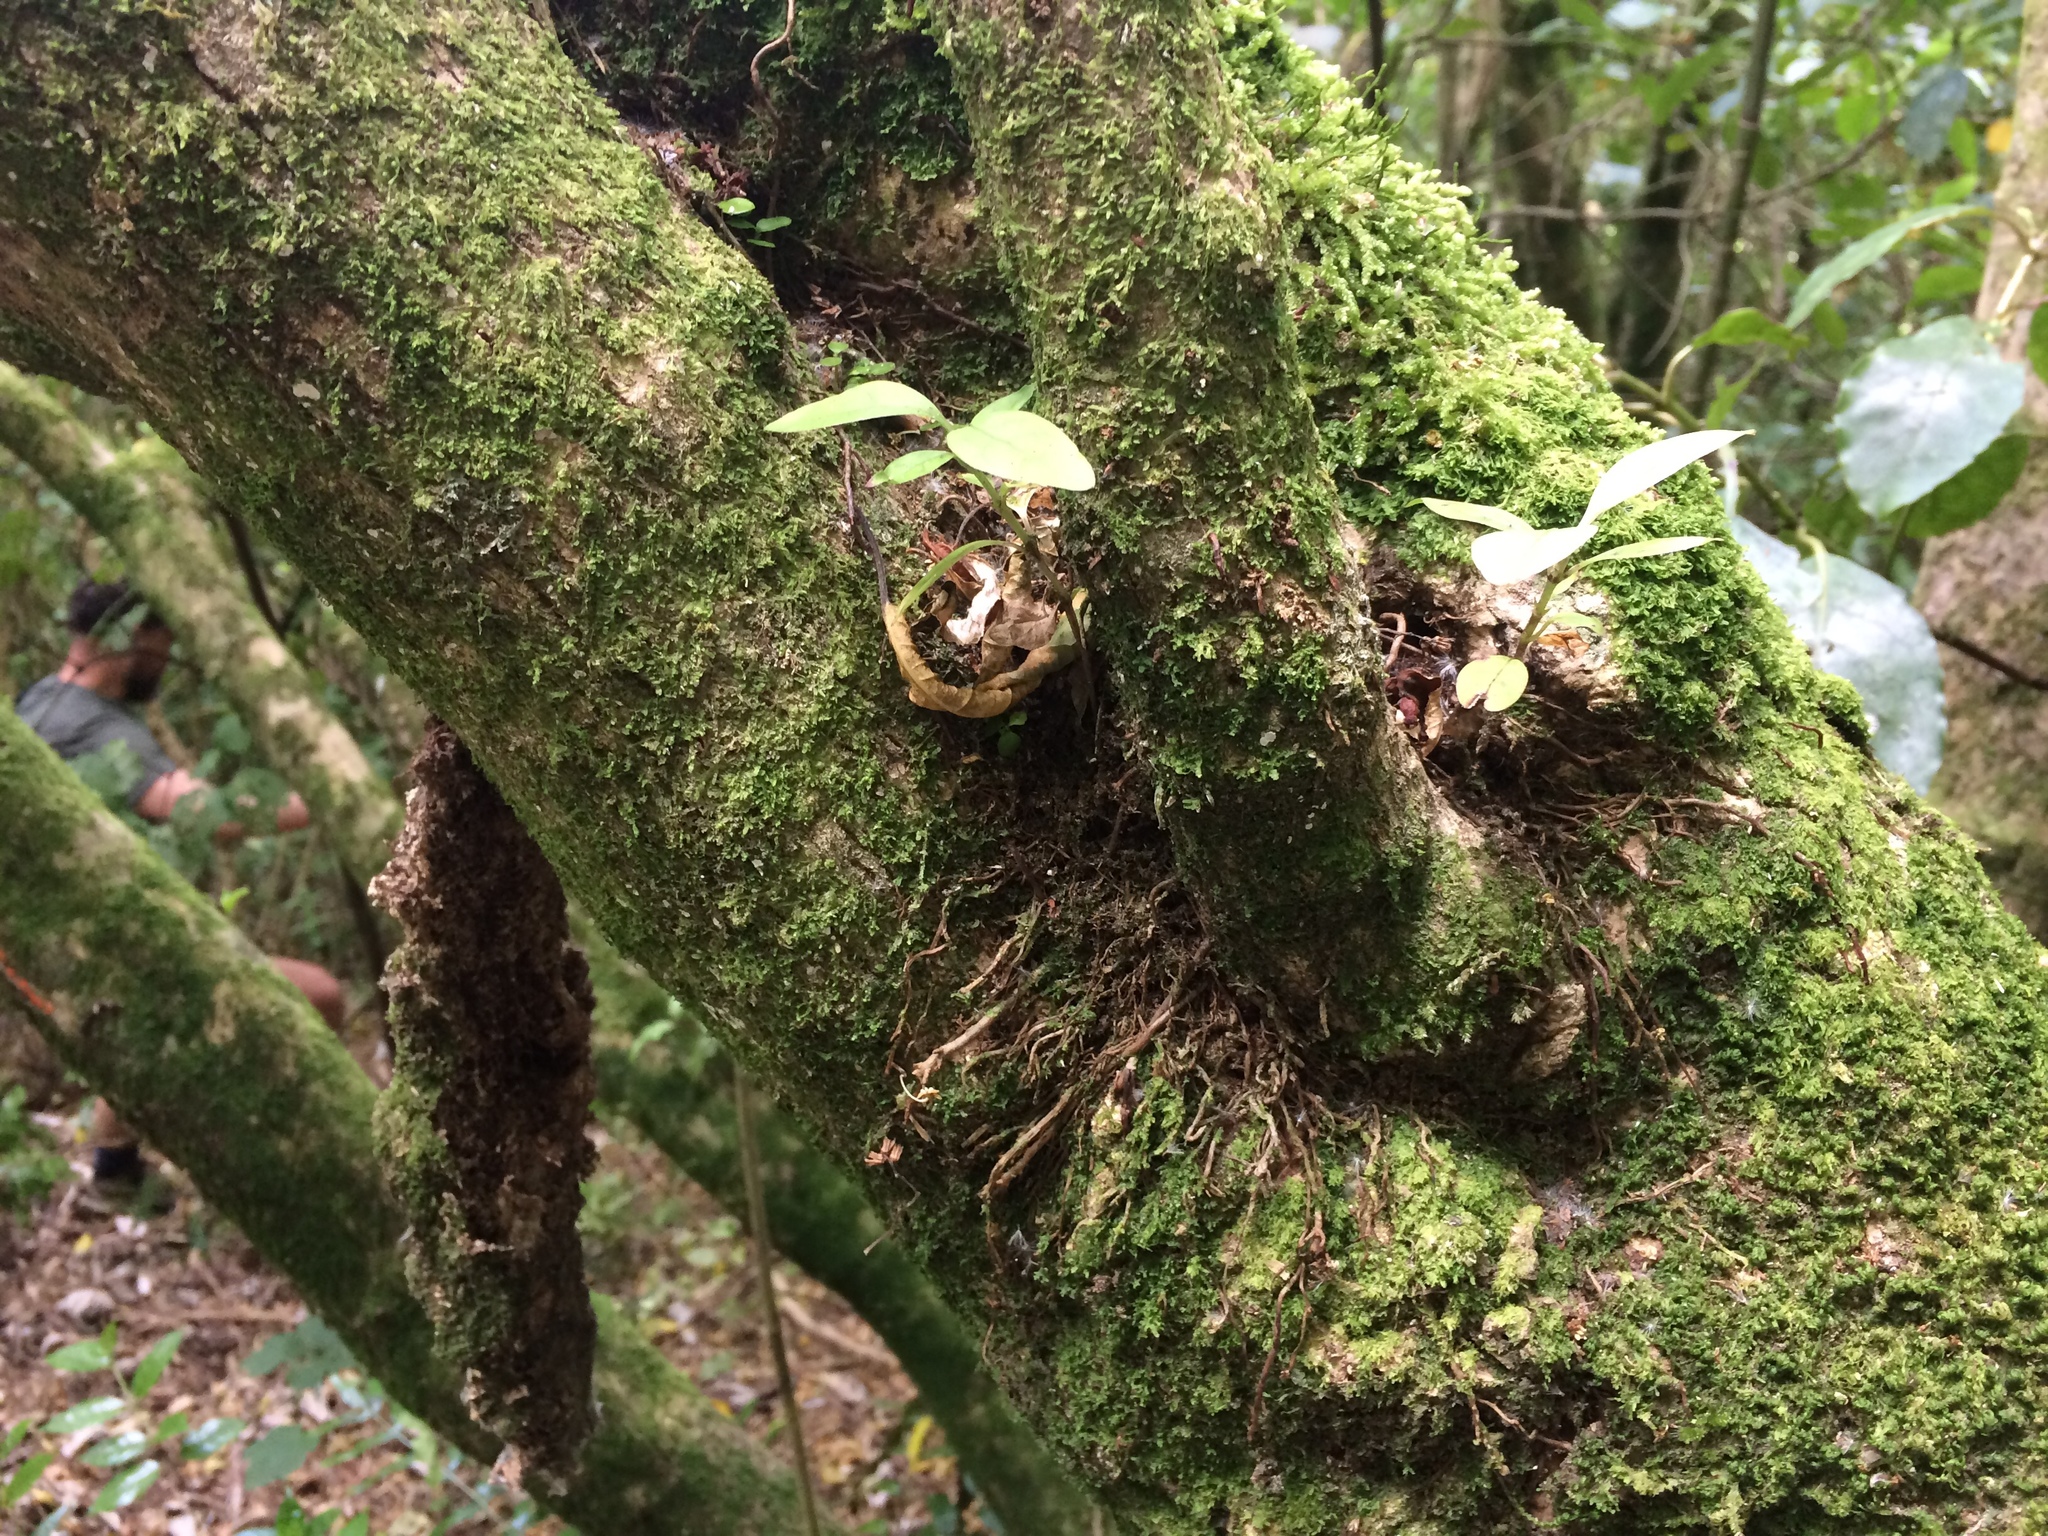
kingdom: Plantae
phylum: Tracheophyta
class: Magnoliopsida
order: Gentianales
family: Rubiaceae
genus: Coprosma
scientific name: Coprosma autumnalis
